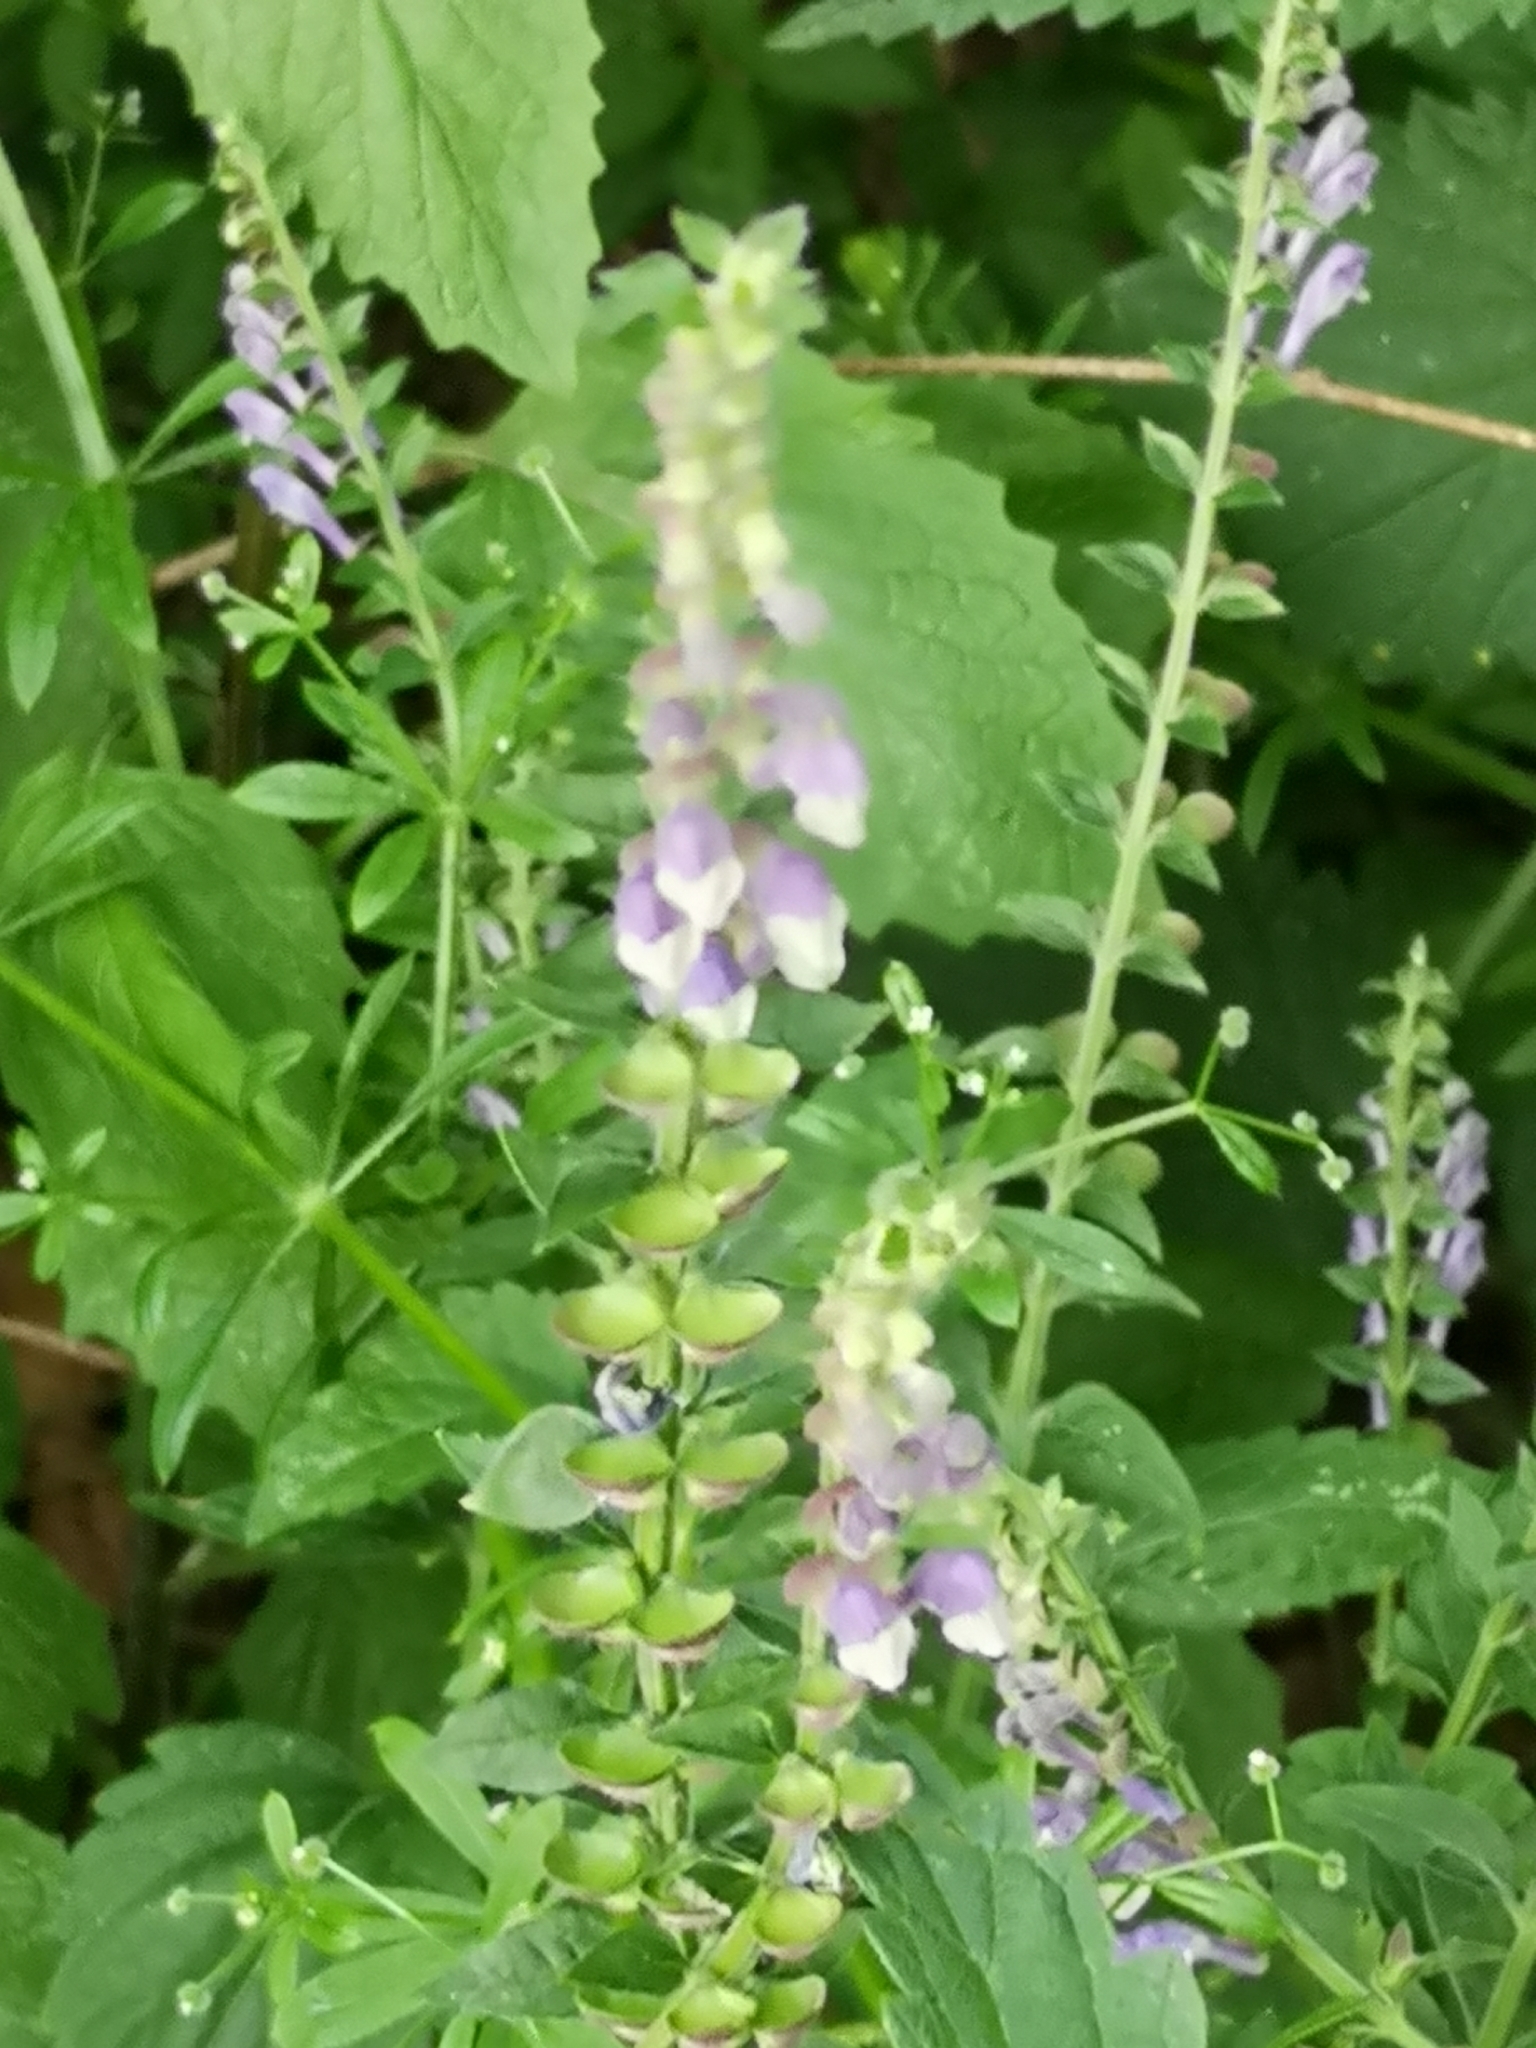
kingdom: Plantae
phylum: Tracheophyta
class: Magnoliopsida
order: Lamiales
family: Lamiaceae
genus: Scutellaria
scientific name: Scutellaria altissima
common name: Somerset skullcap
